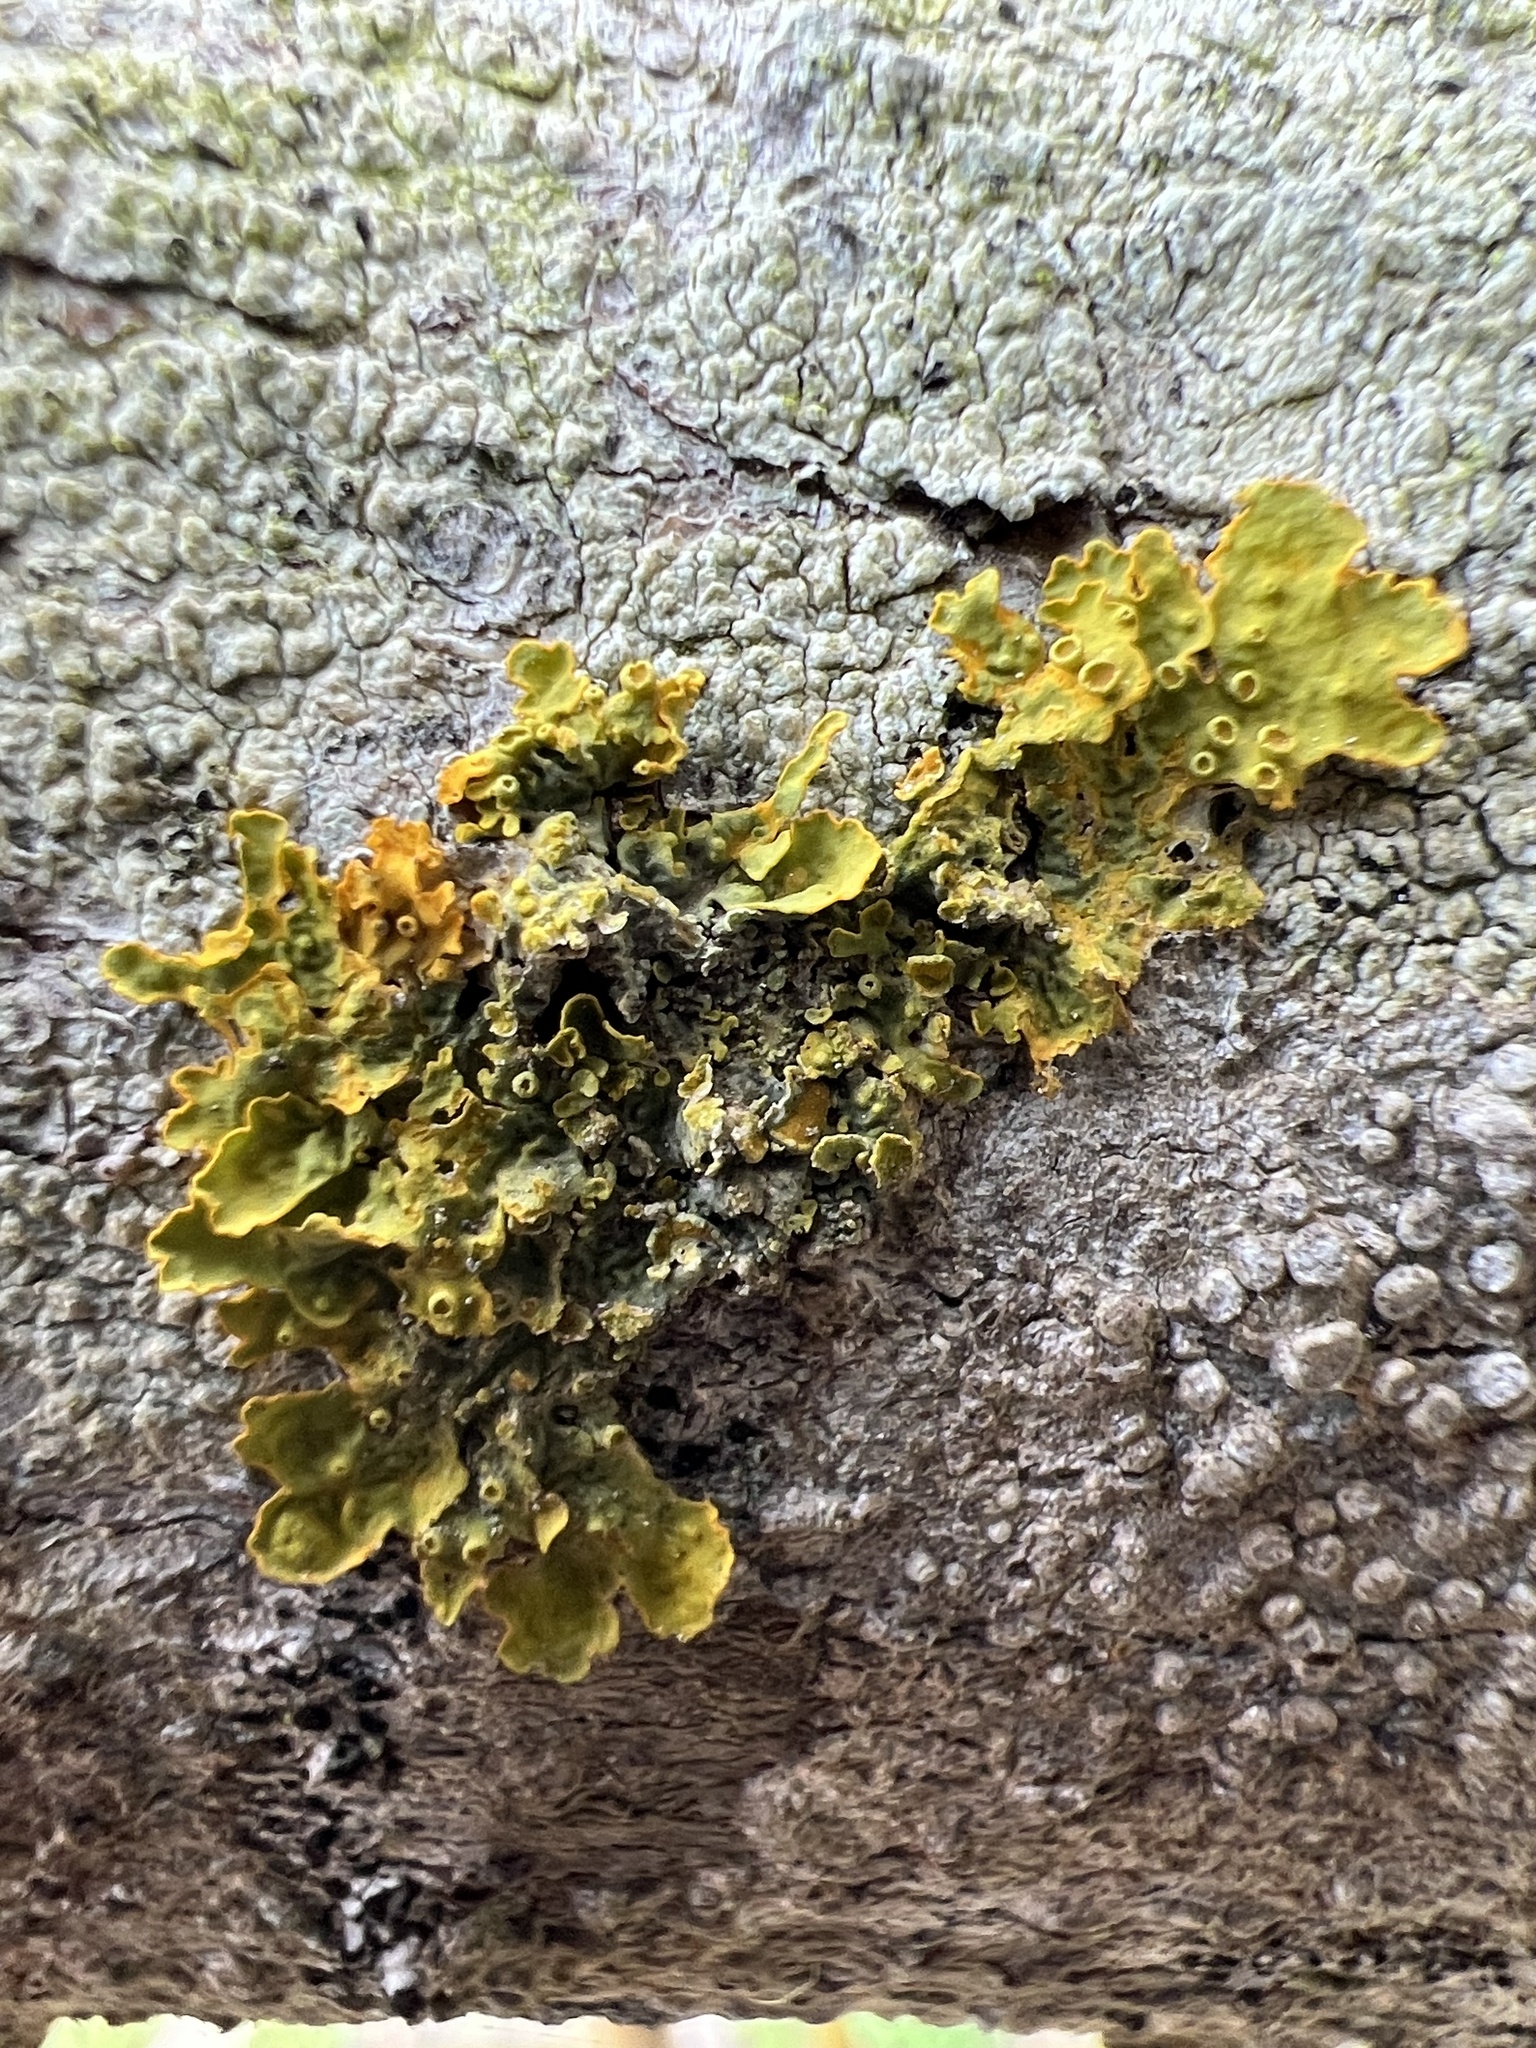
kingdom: Fungi
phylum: Ascomycota
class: Lecanoromycetes
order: Teloschistales
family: Teloschistaceae
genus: Xanthoria
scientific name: Xanthoria parietina
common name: Common orange lichen
